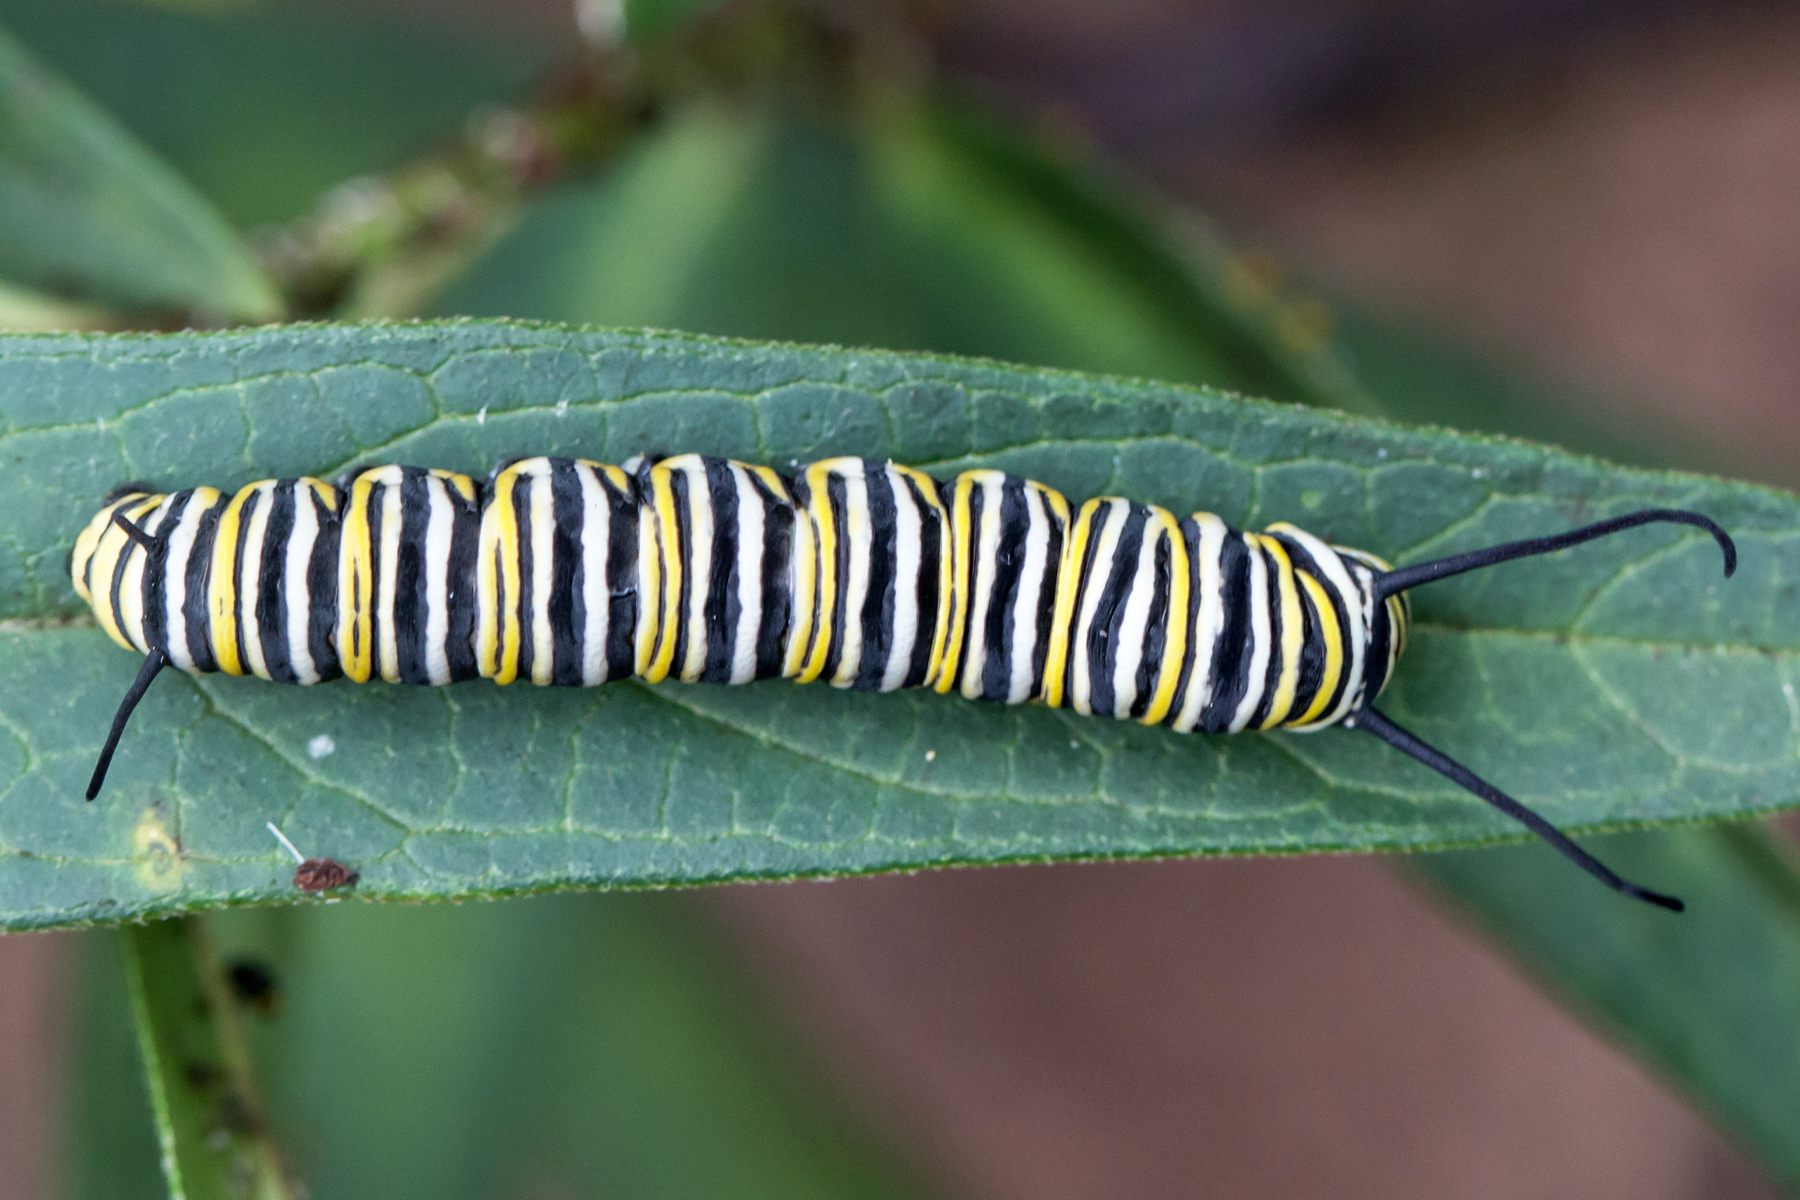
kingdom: Animalia
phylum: Arthropoda
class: Insecta
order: Lepidoptera
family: Nymphalidae
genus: Danaus
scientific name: Danaus plexippus
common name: Monarch
